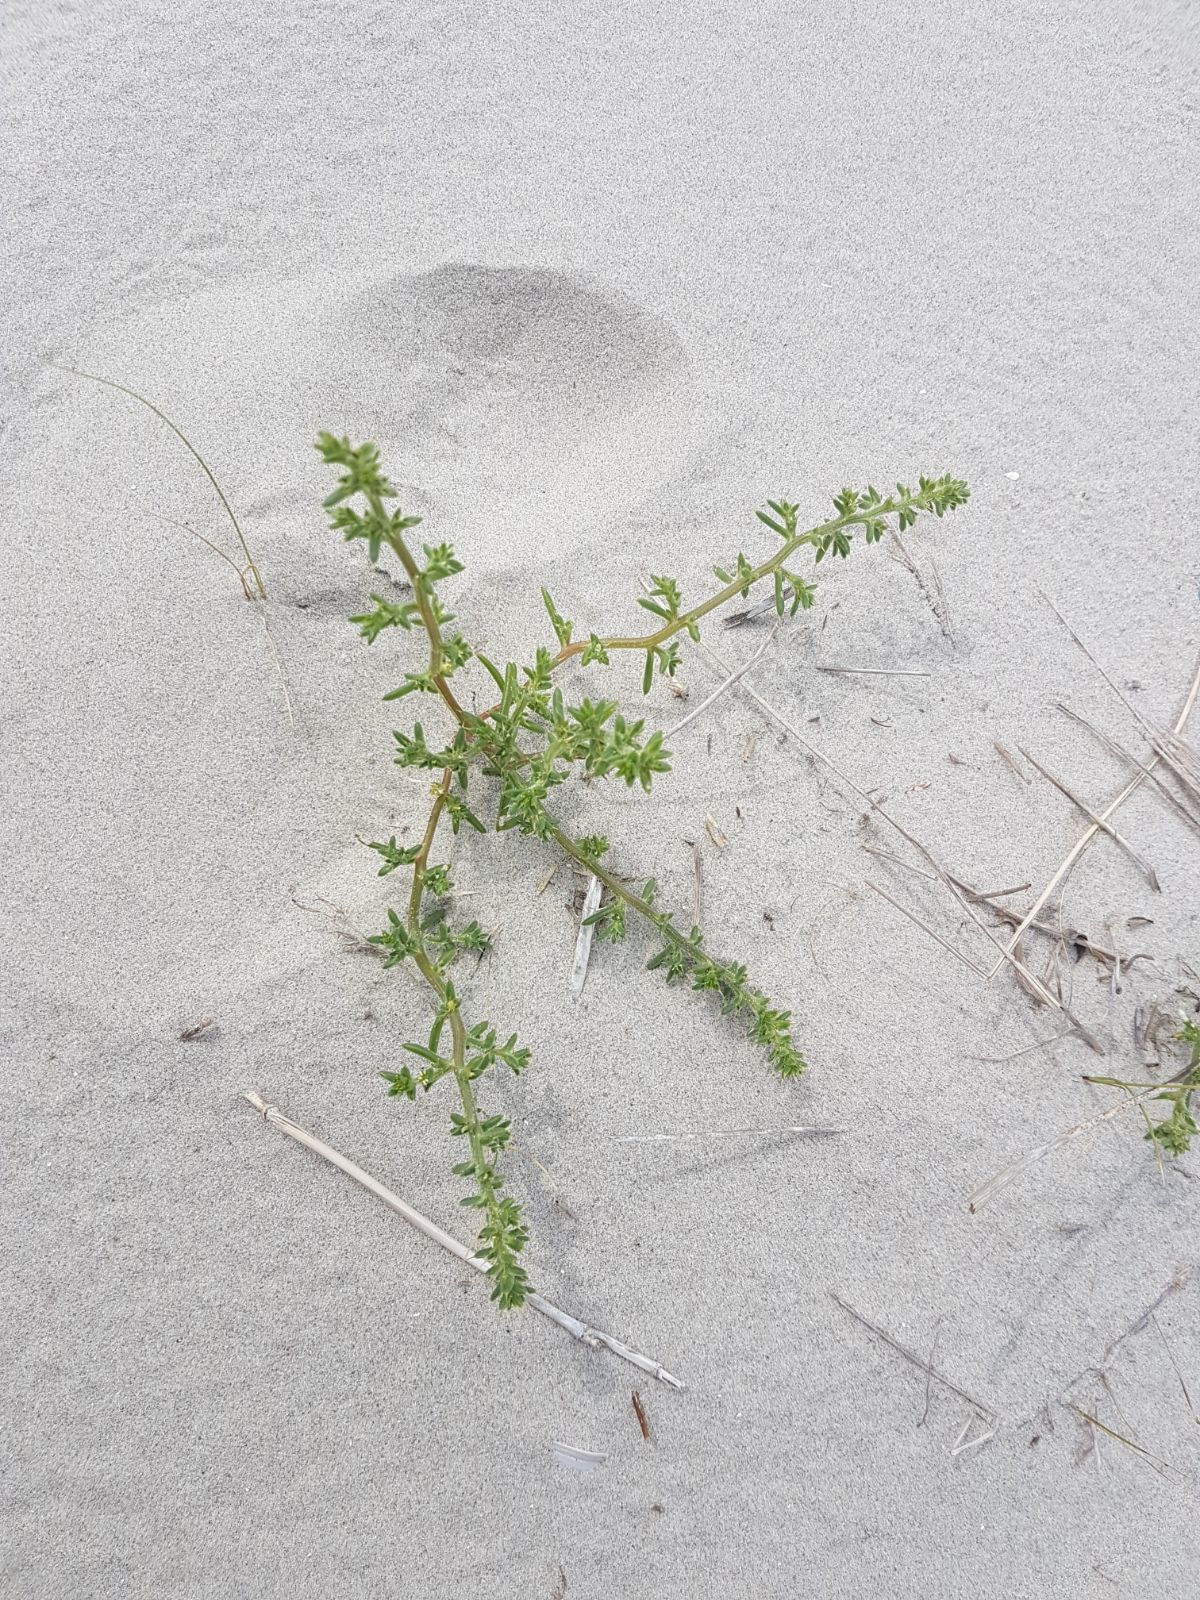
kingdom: Plantae
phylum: Tracheophyta
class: Magnoliopsida
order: Caryophyllales
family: Amaranthaceae
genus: Salsola
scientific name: Salsola kali
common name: Saltwort
